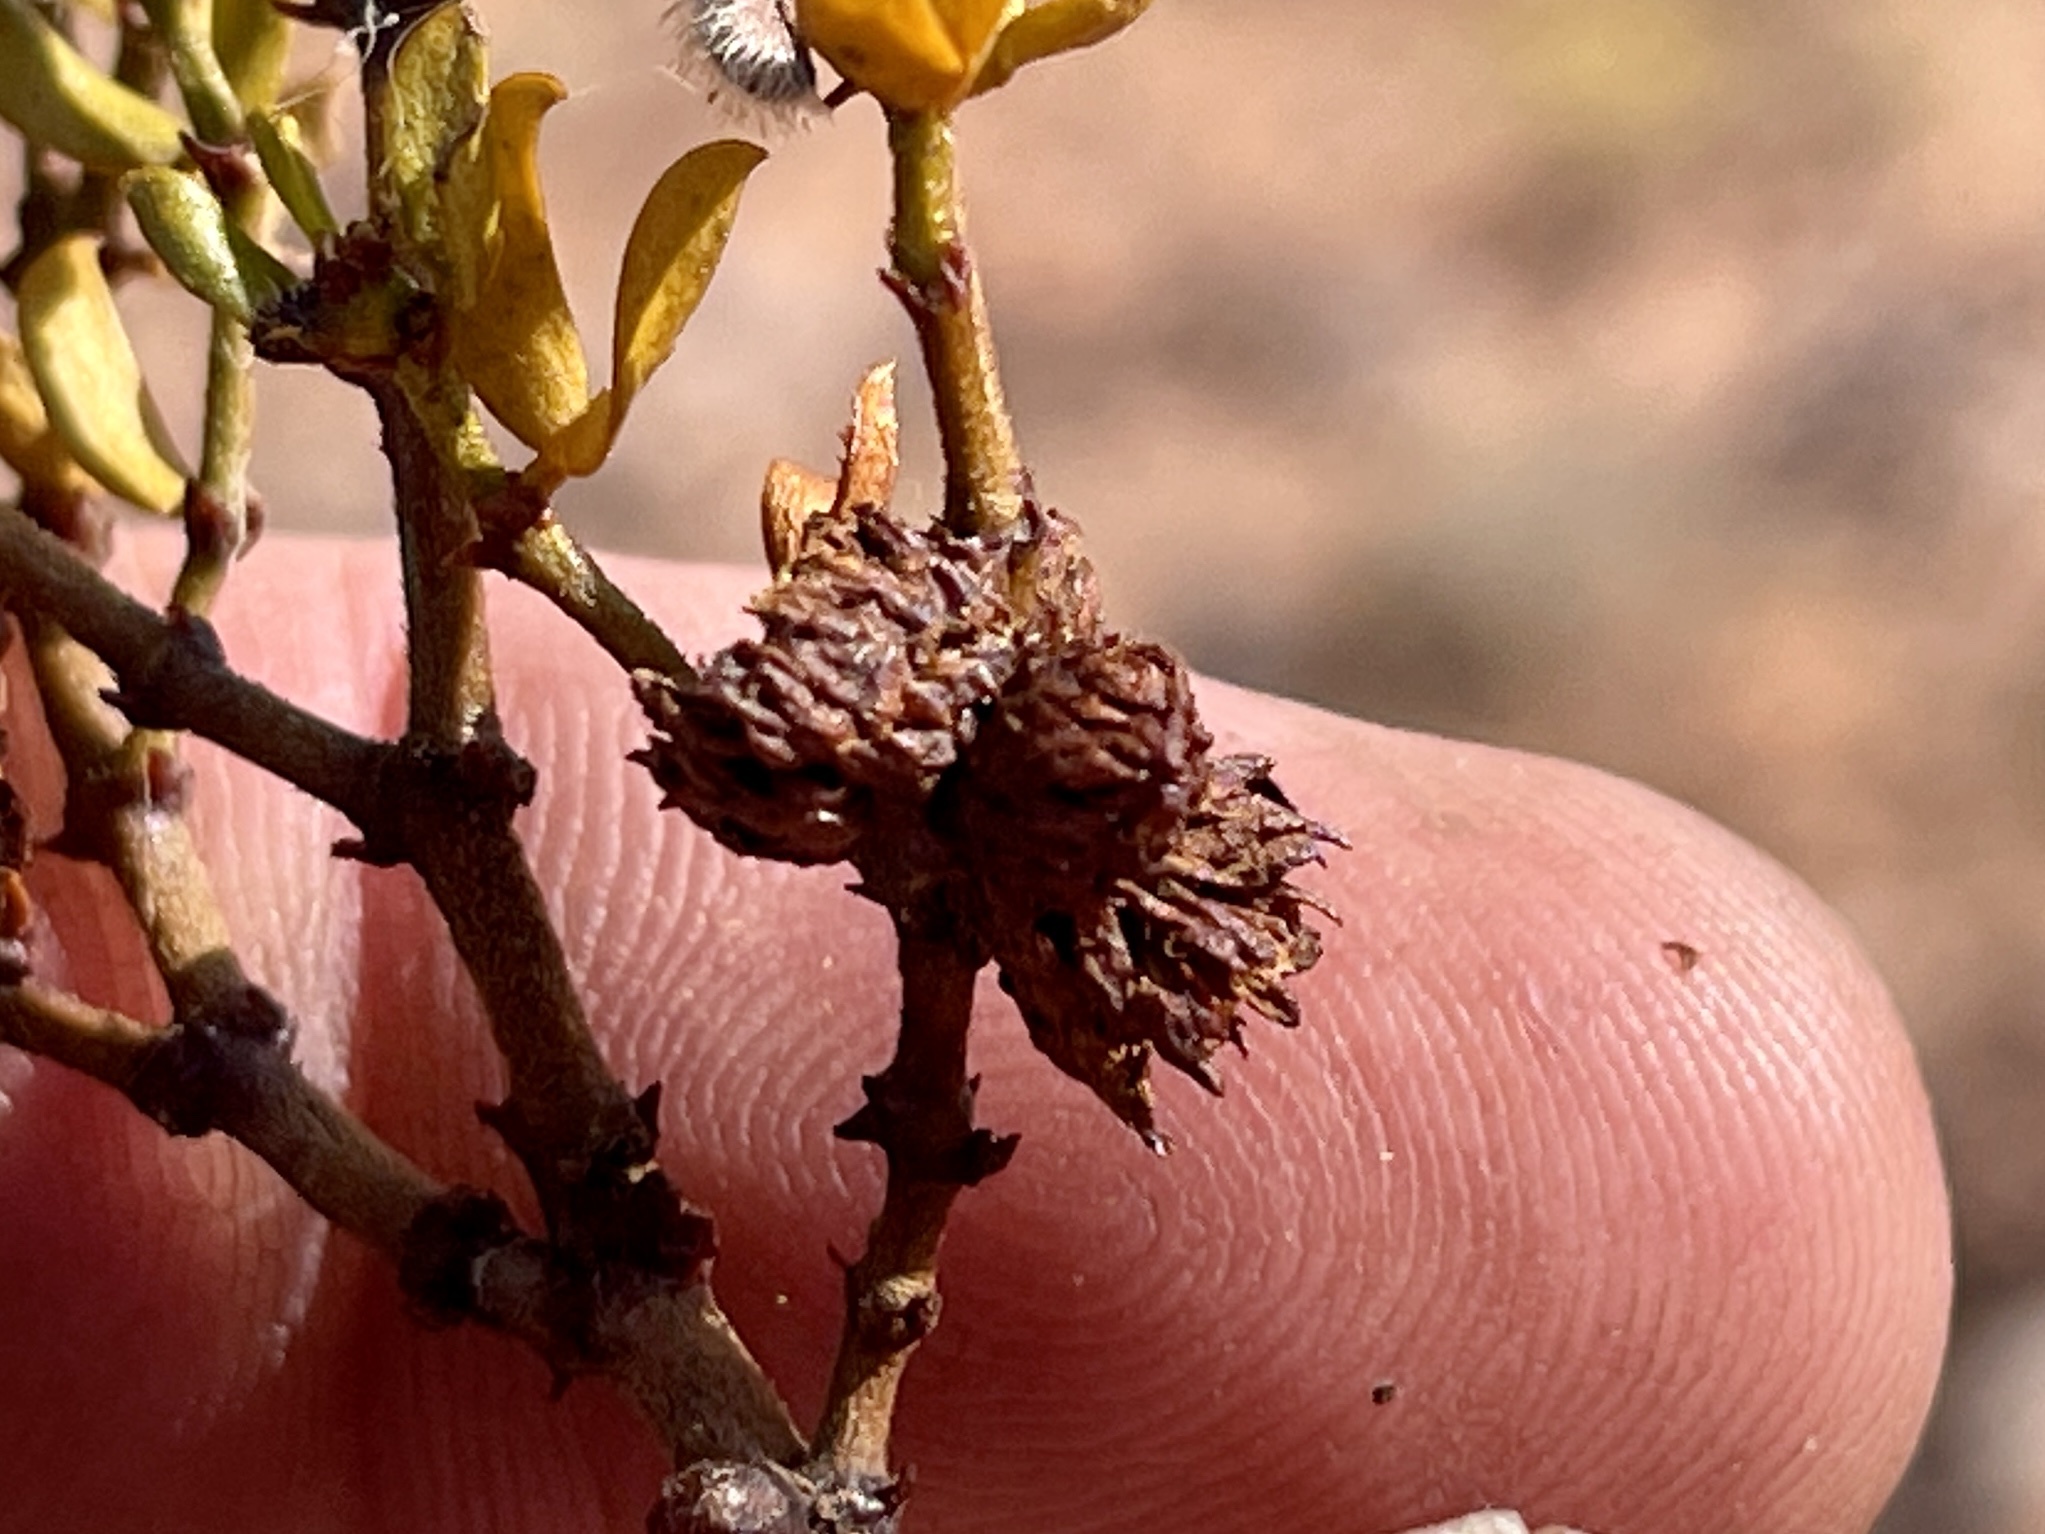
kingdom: Animalia
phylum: Arthropoda
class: Insecta
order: Diptera
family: Cecidomyiidae
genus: Asphondylia
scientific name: Asphondylia rosetta
